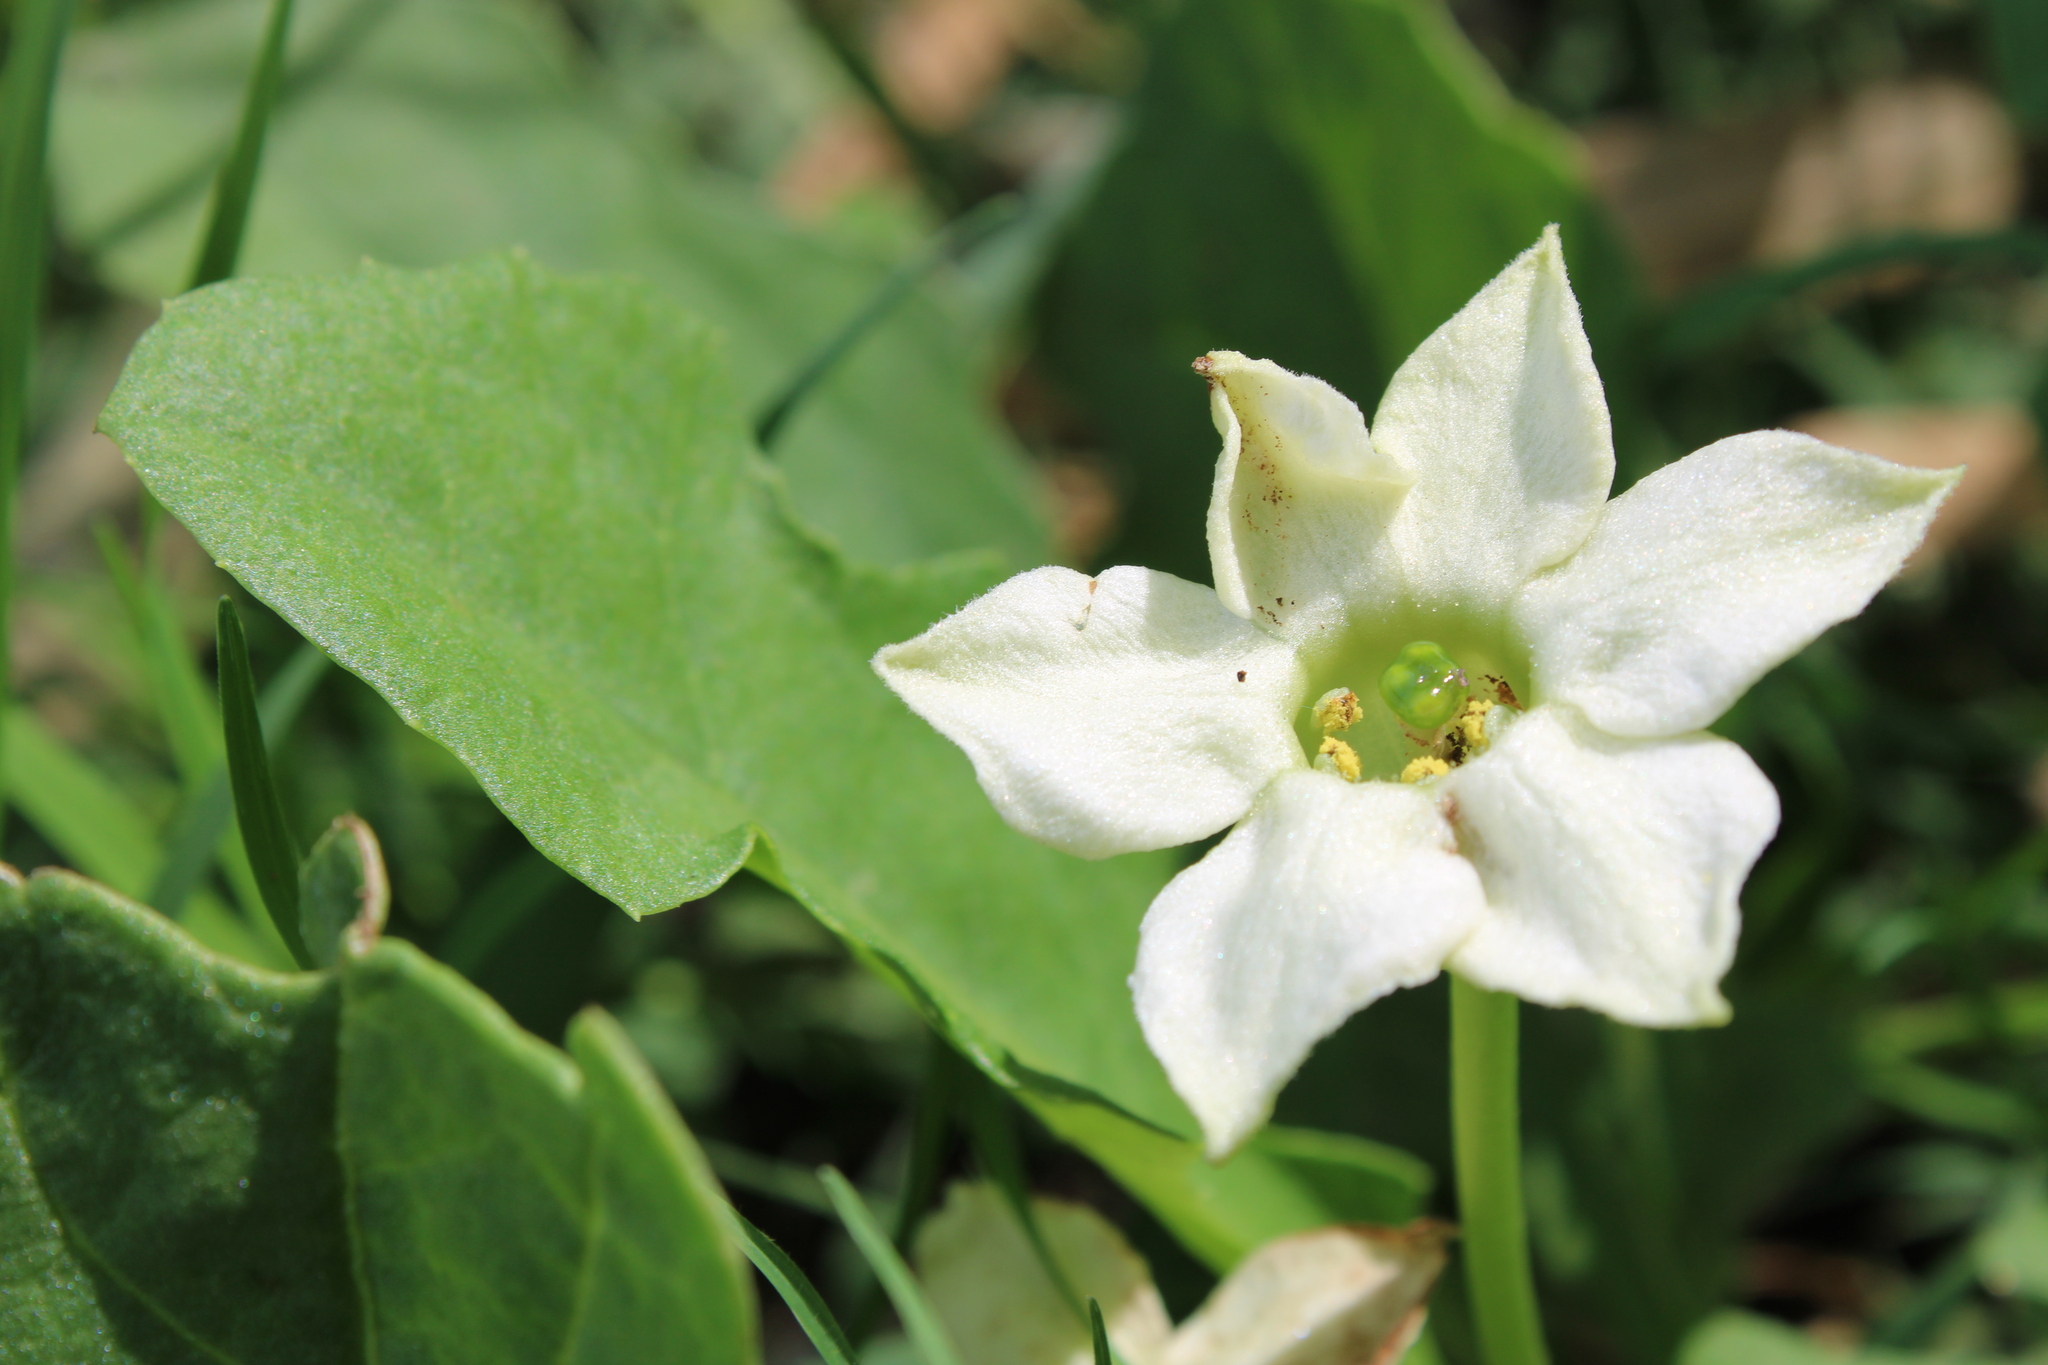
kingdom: Plantae
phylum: Tracheophyta
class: Magnoliopsida
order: Solanales
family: Solanaceae
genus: Jaborosa
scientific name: Jaborosa runcinata
